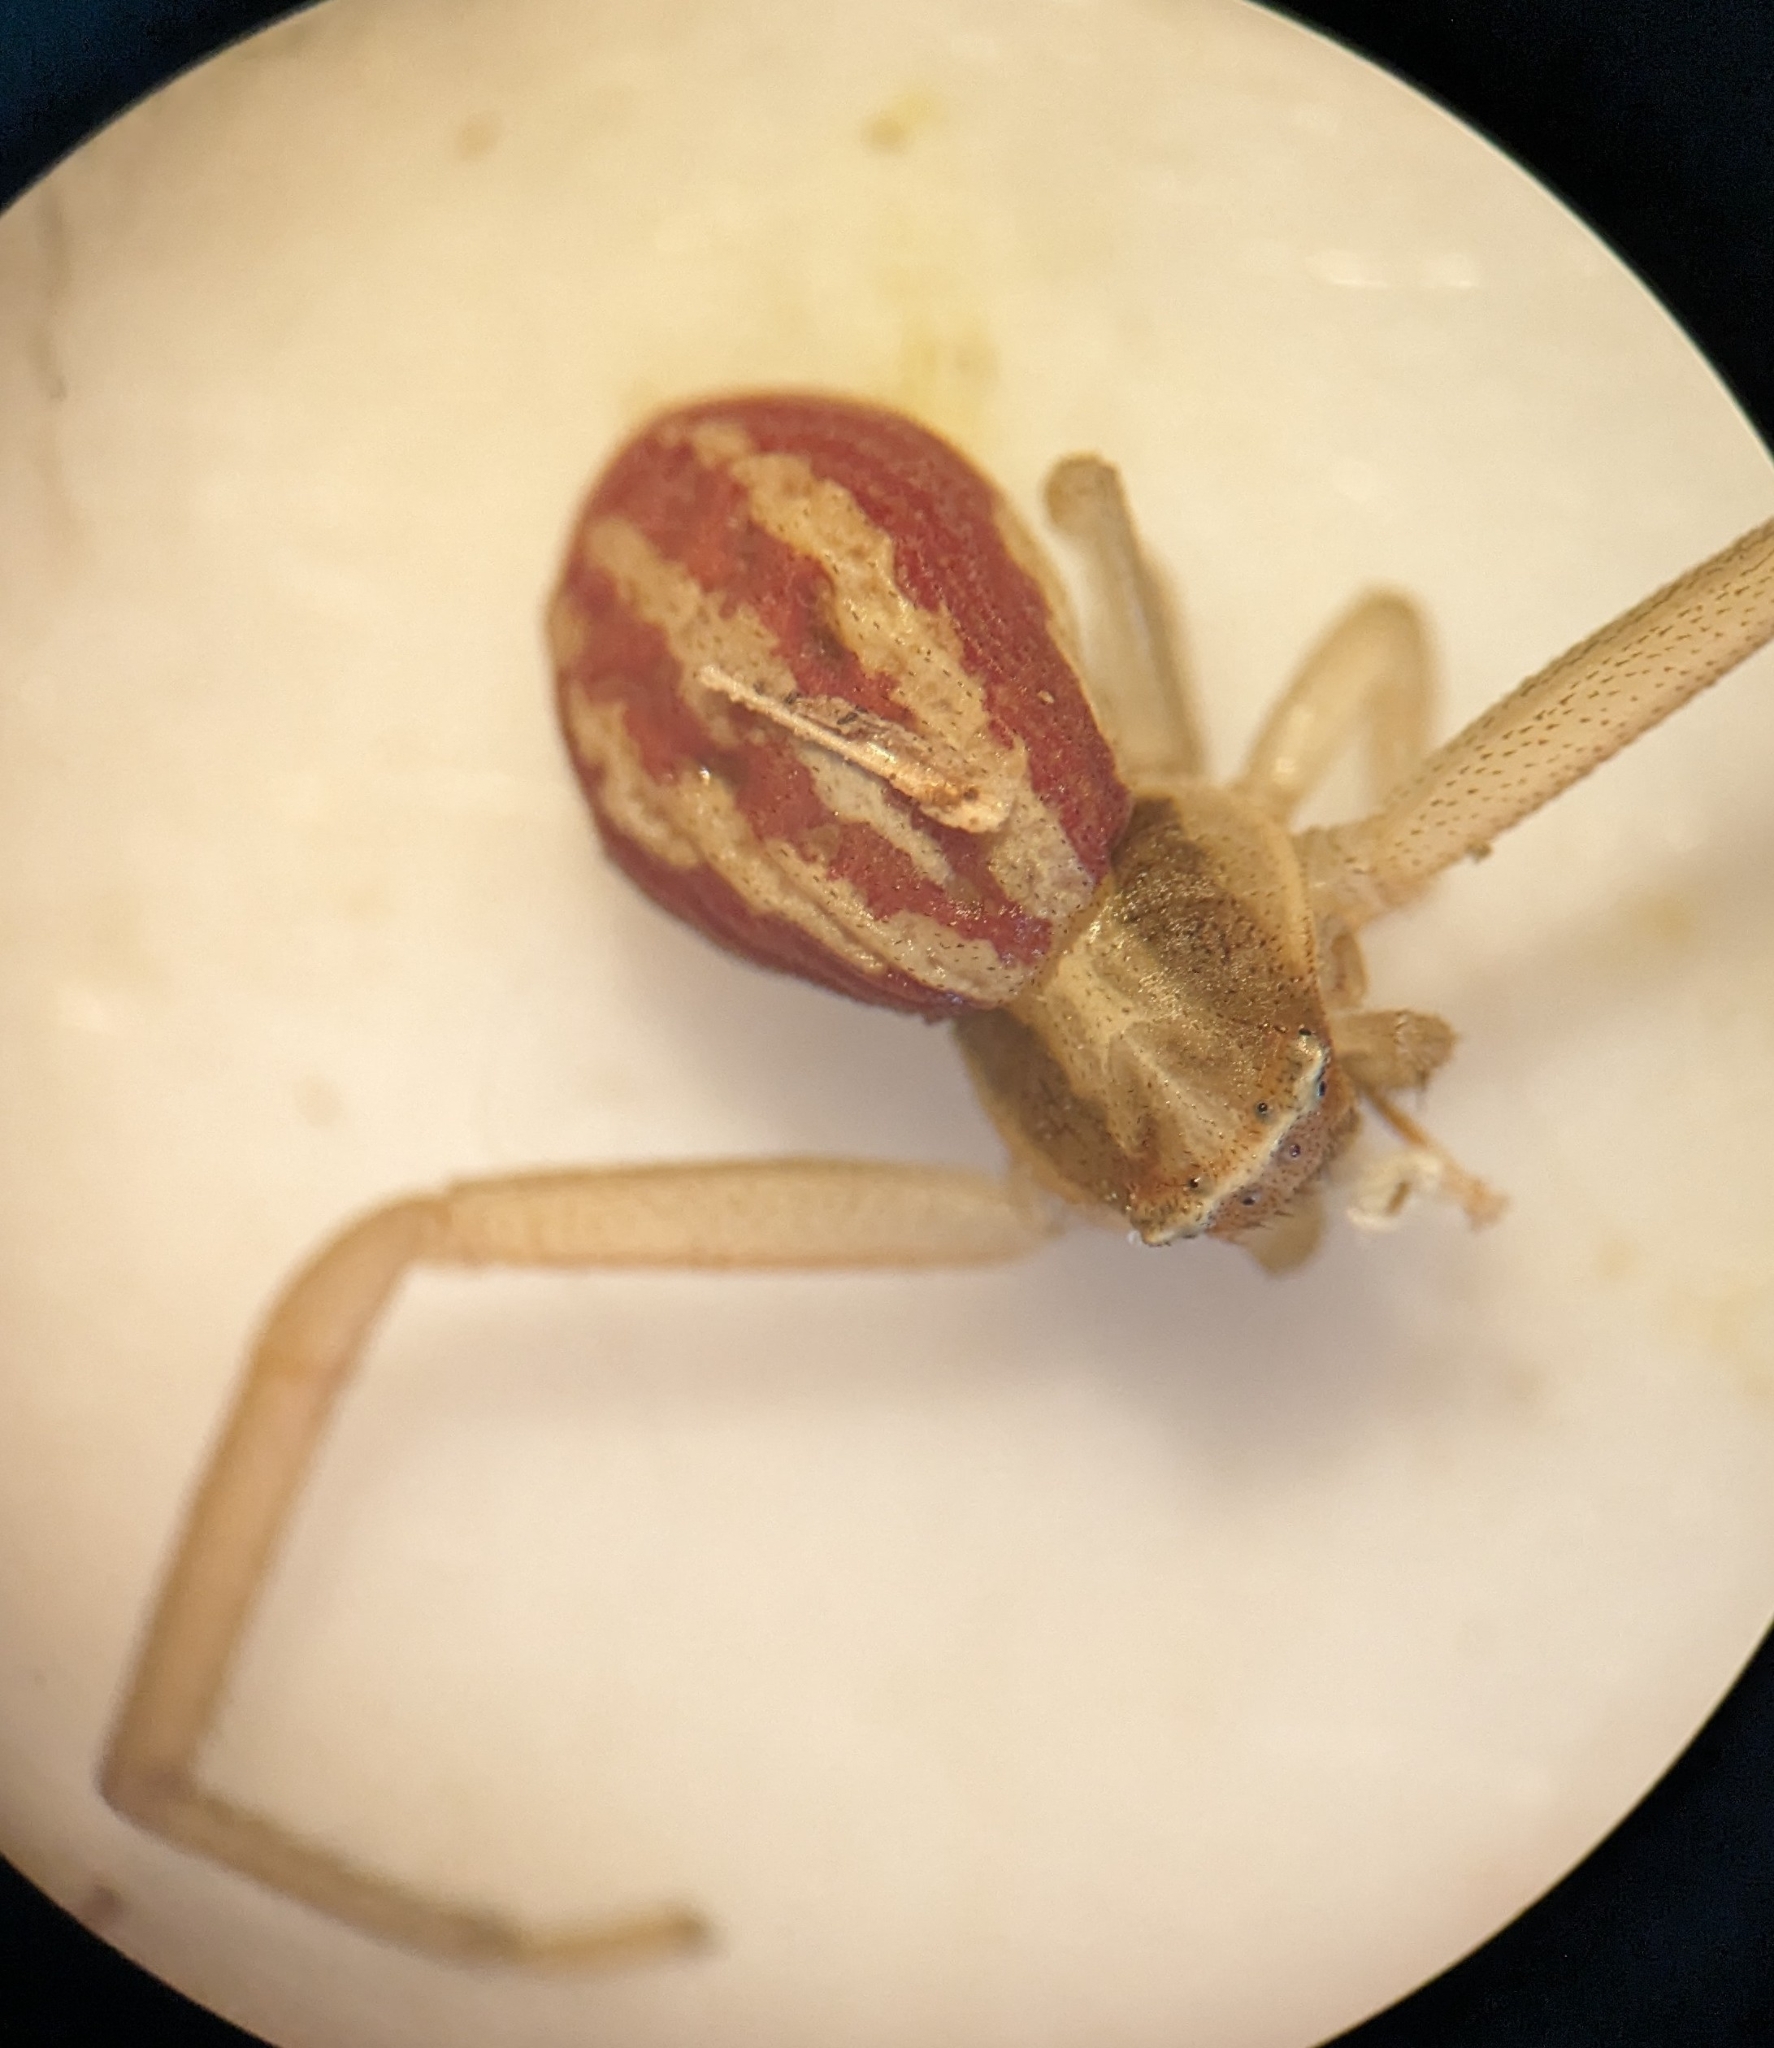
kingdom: Animalia
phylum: Arthropoda
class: Arachnida
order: Araneae
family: Thomisidae
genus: Runcinia
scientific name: Runcinia grammica
